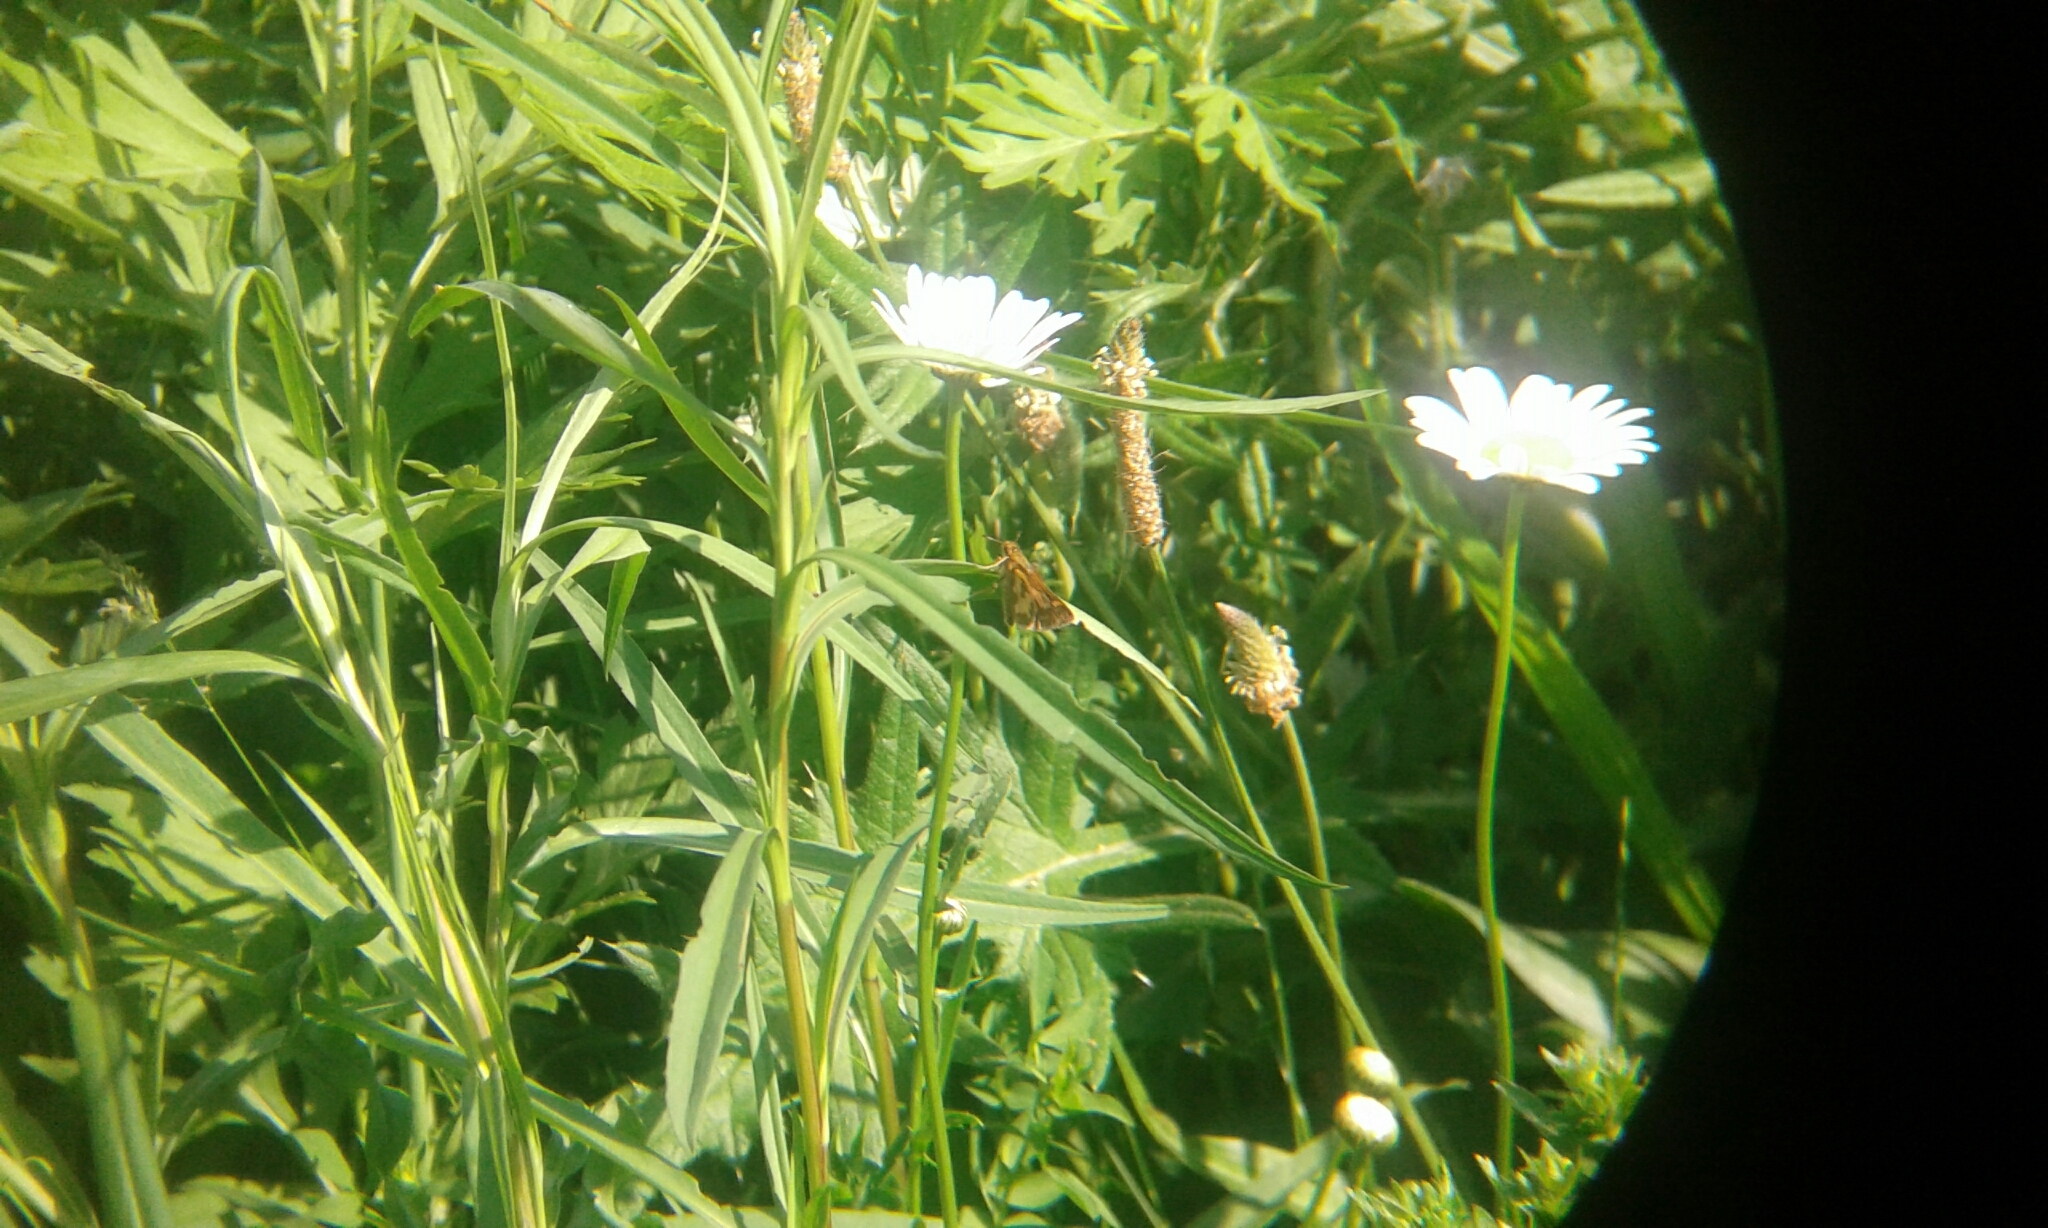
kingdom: Animalia
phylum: Arthropoda
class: Insecta
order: Lepidoptera
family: Hesperiidae
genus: Polites
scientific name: Polites coras
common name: Peck's skipper
